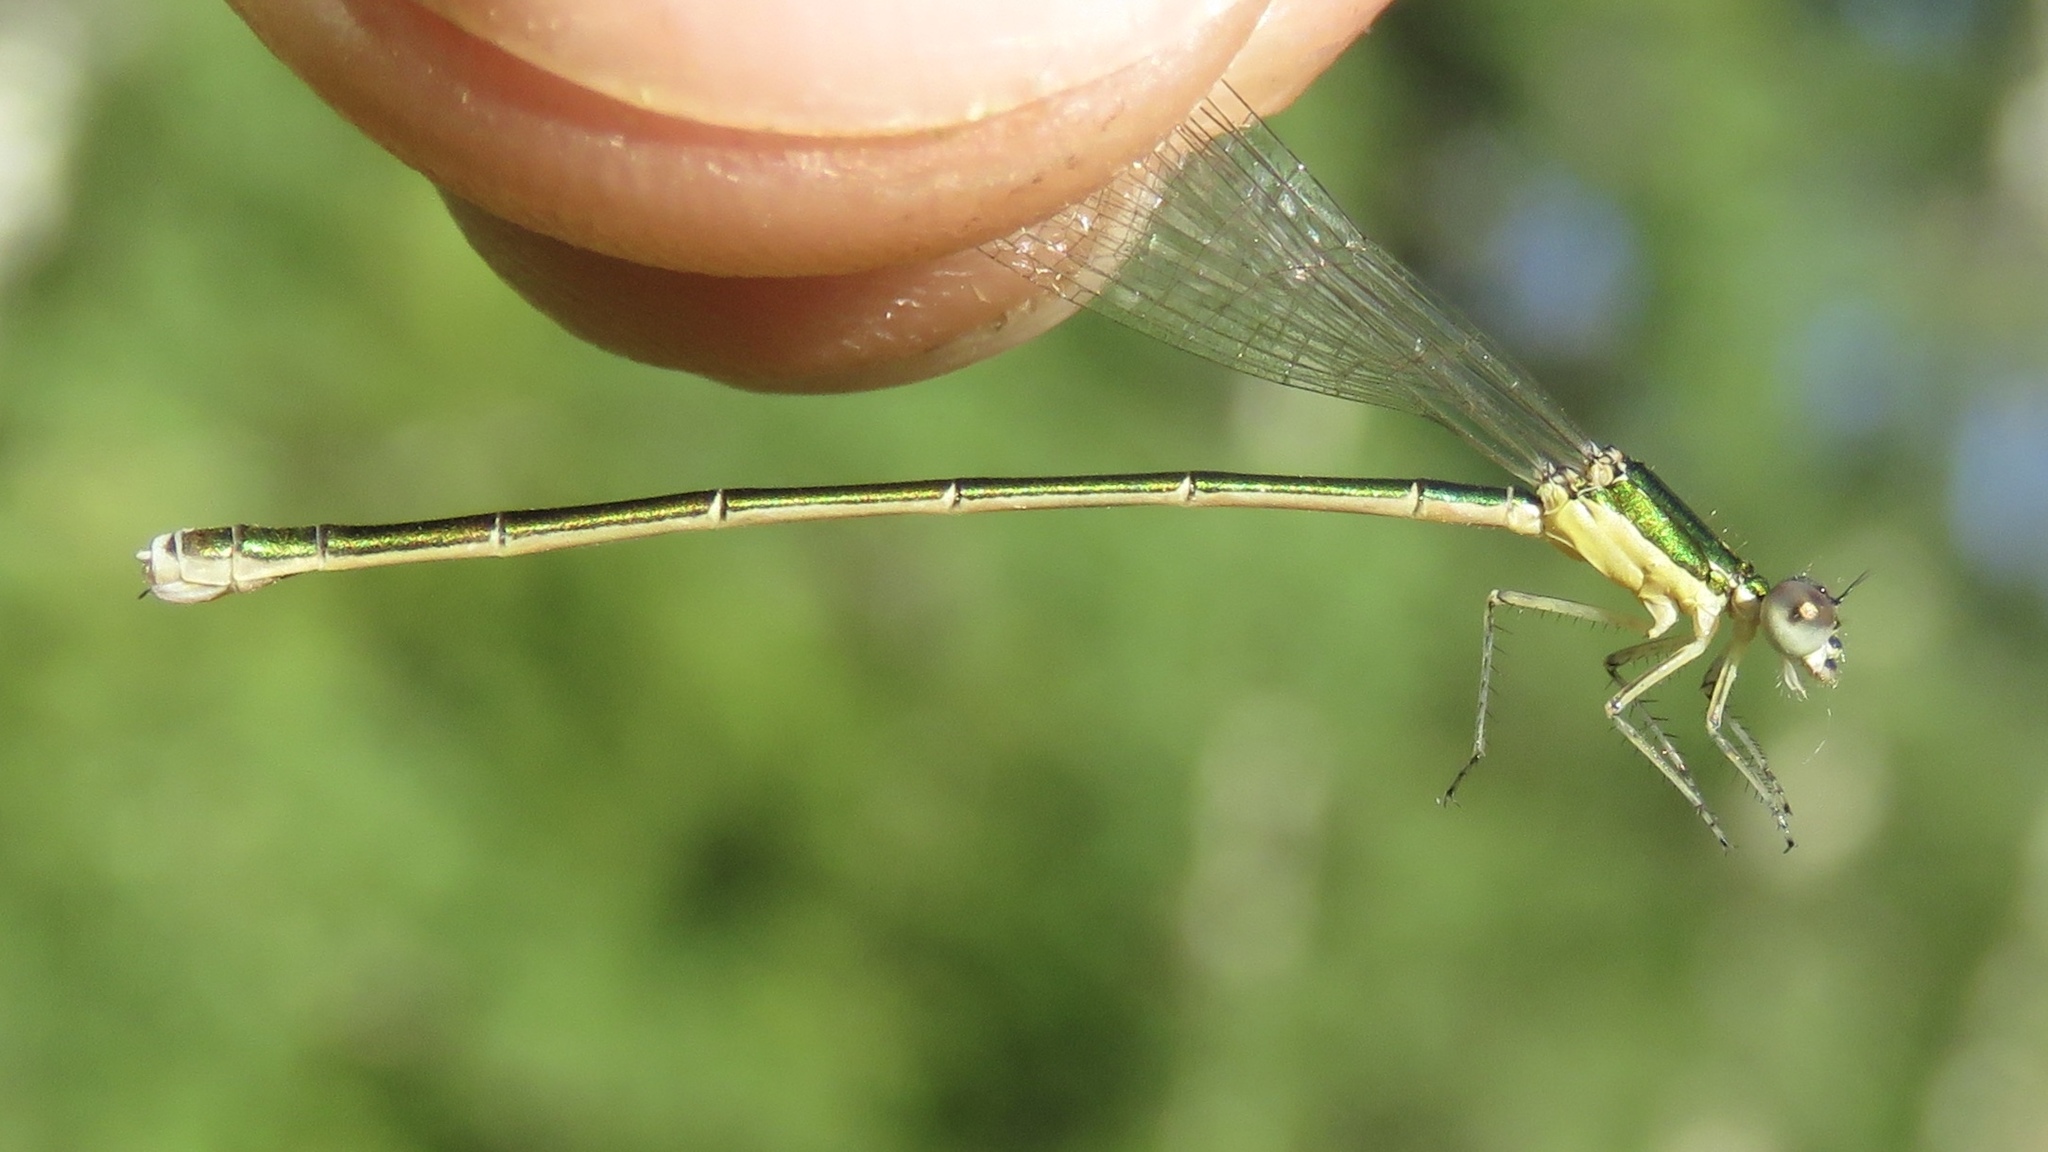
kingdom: Animalia
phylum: Arthropoda
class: Insecta
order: Odonata
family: Coenagrionidae
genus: Nehalennia
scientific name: Nehalennia irene
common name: Sedge sprite
